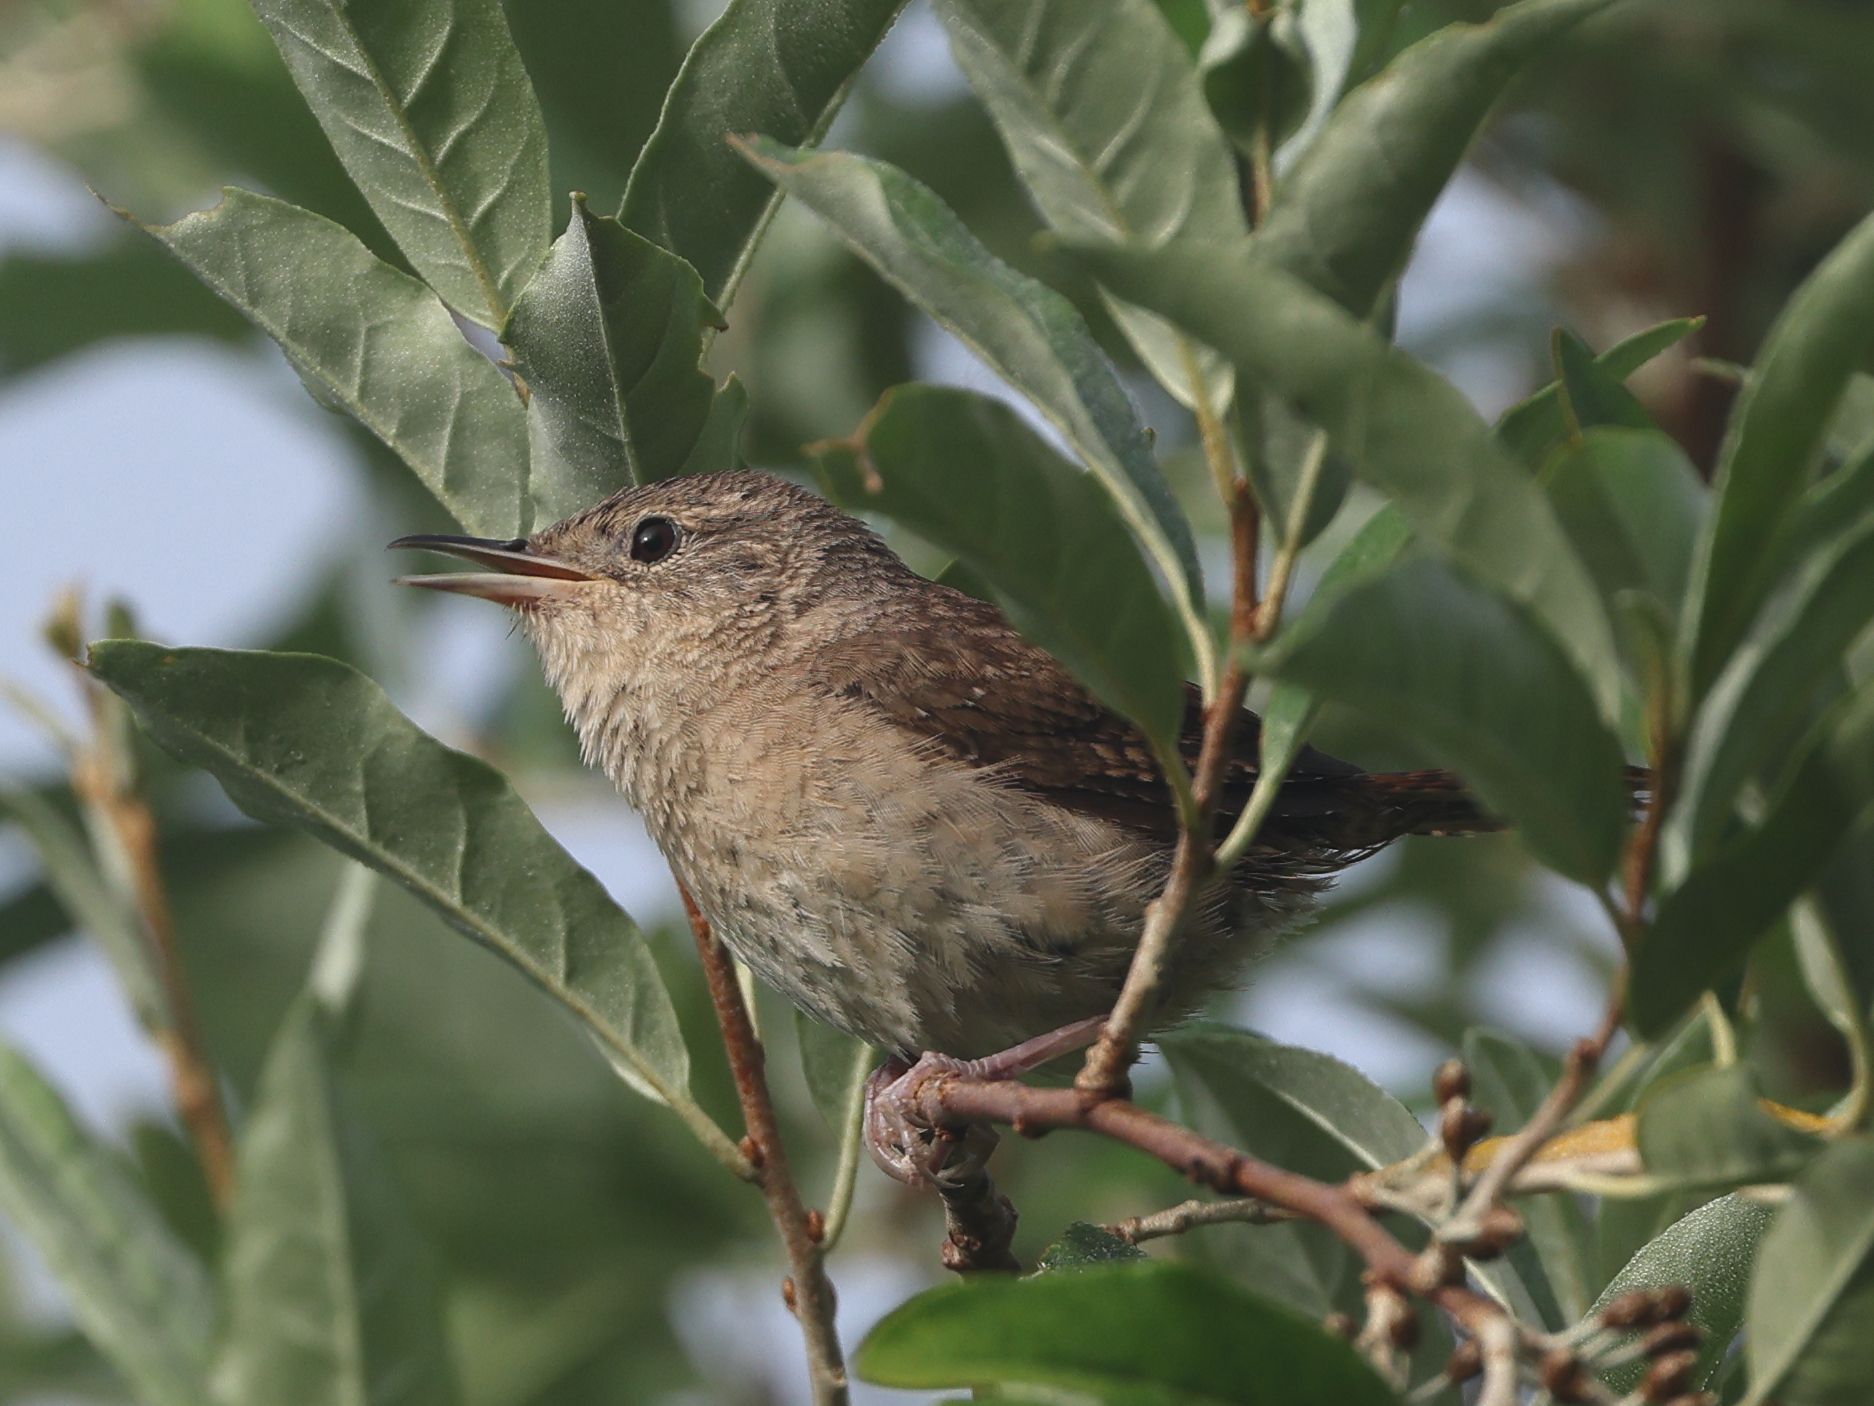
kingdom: Animalia
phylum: Chordata
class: Aves
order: Passeriformes
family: Troglodytidae
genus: Troglodytes
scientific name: Troglodytes aedon
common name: House wren
